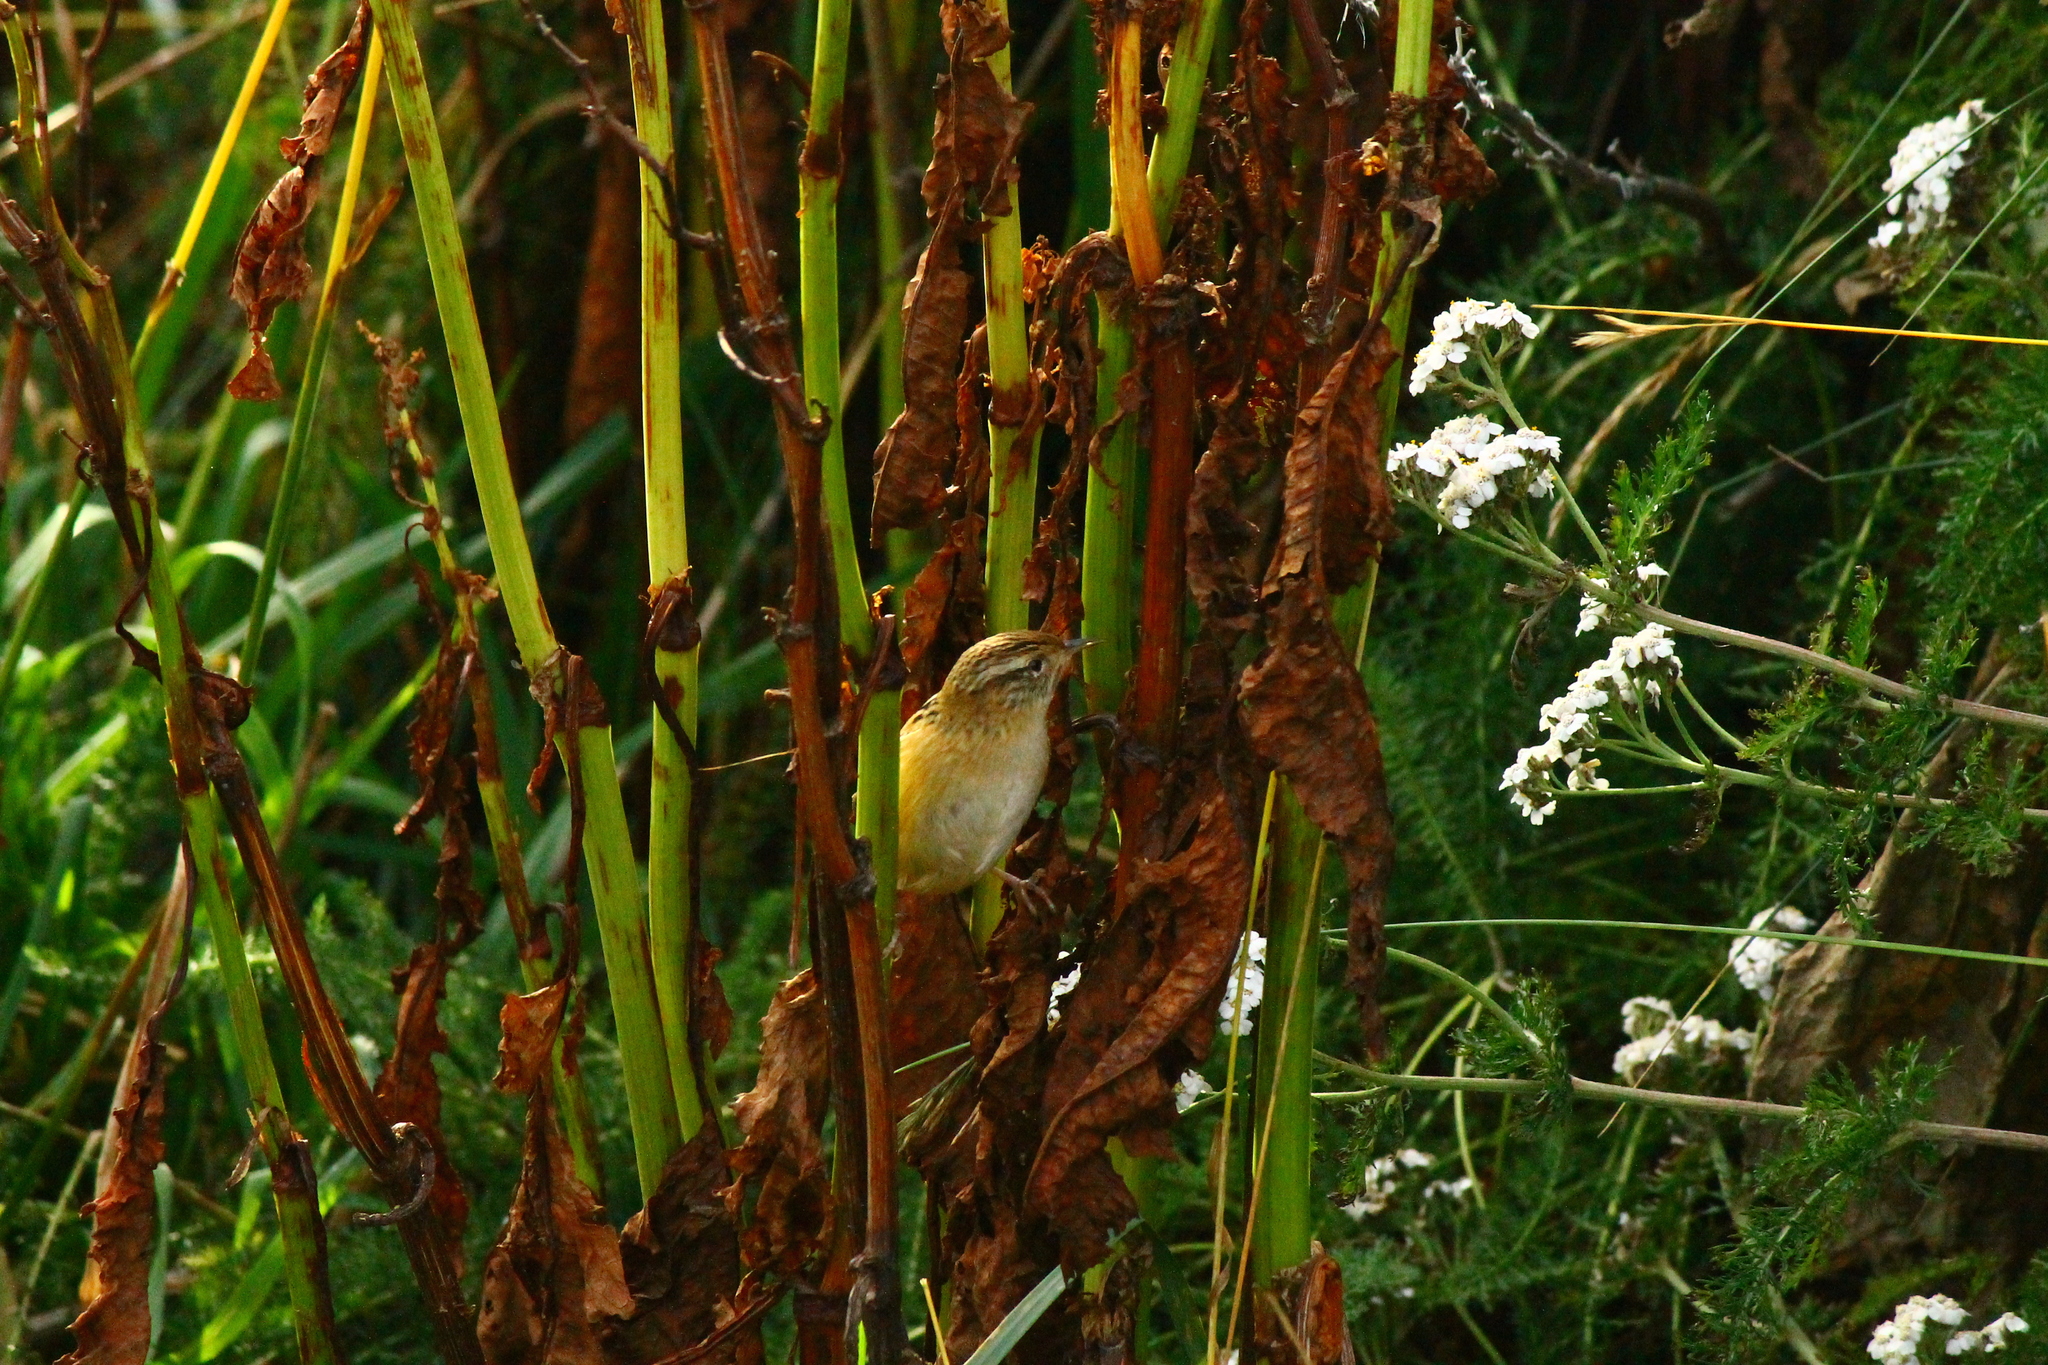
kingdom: Animalia
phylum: Chordata
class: Aves
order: Passeriformes
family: Troglodytidae
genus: Cistothorus
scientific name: Cistothorus platensis
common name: Sedge wren
